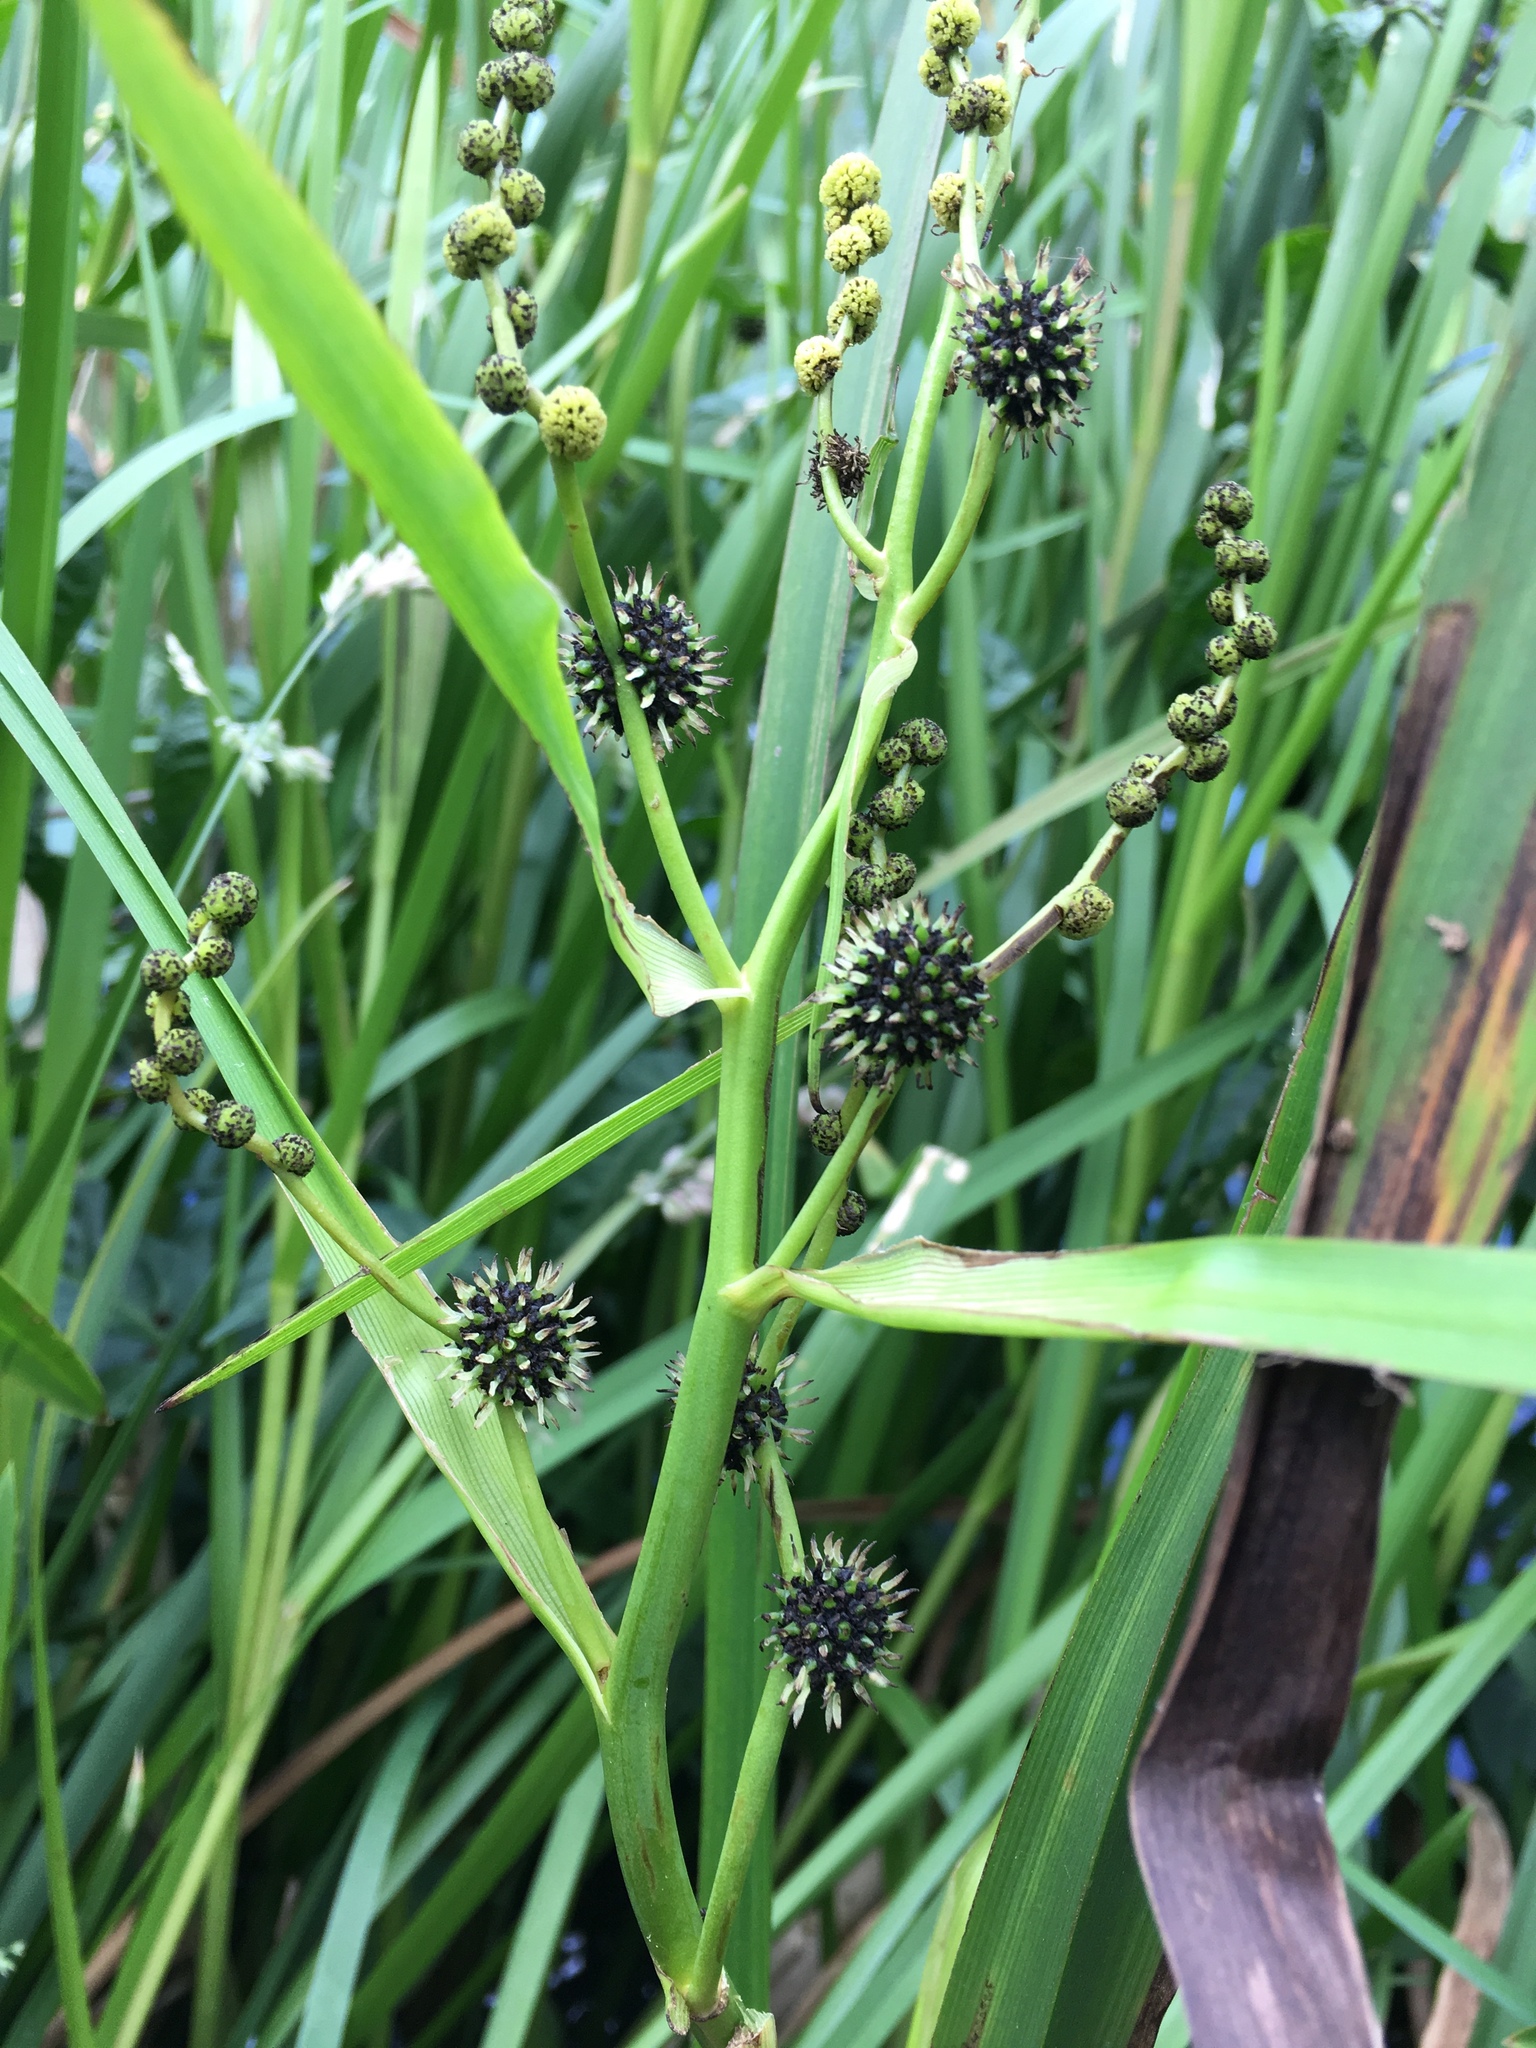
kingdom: Plantae
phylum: Tracheophyta
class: Liliopsida
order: Poales
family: Typhaceae
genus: Sparganium
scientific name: Sparganium erectum
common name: Branched bur-reed
